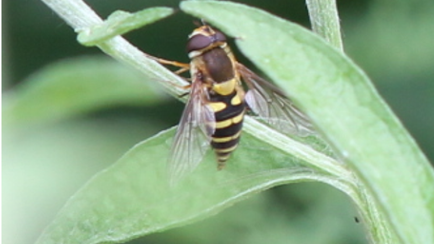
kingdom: Animalia
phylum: Arthropoda
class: Insecta
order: Diptera
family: Syrphidae
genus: Syrphus
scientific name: Syrphus
